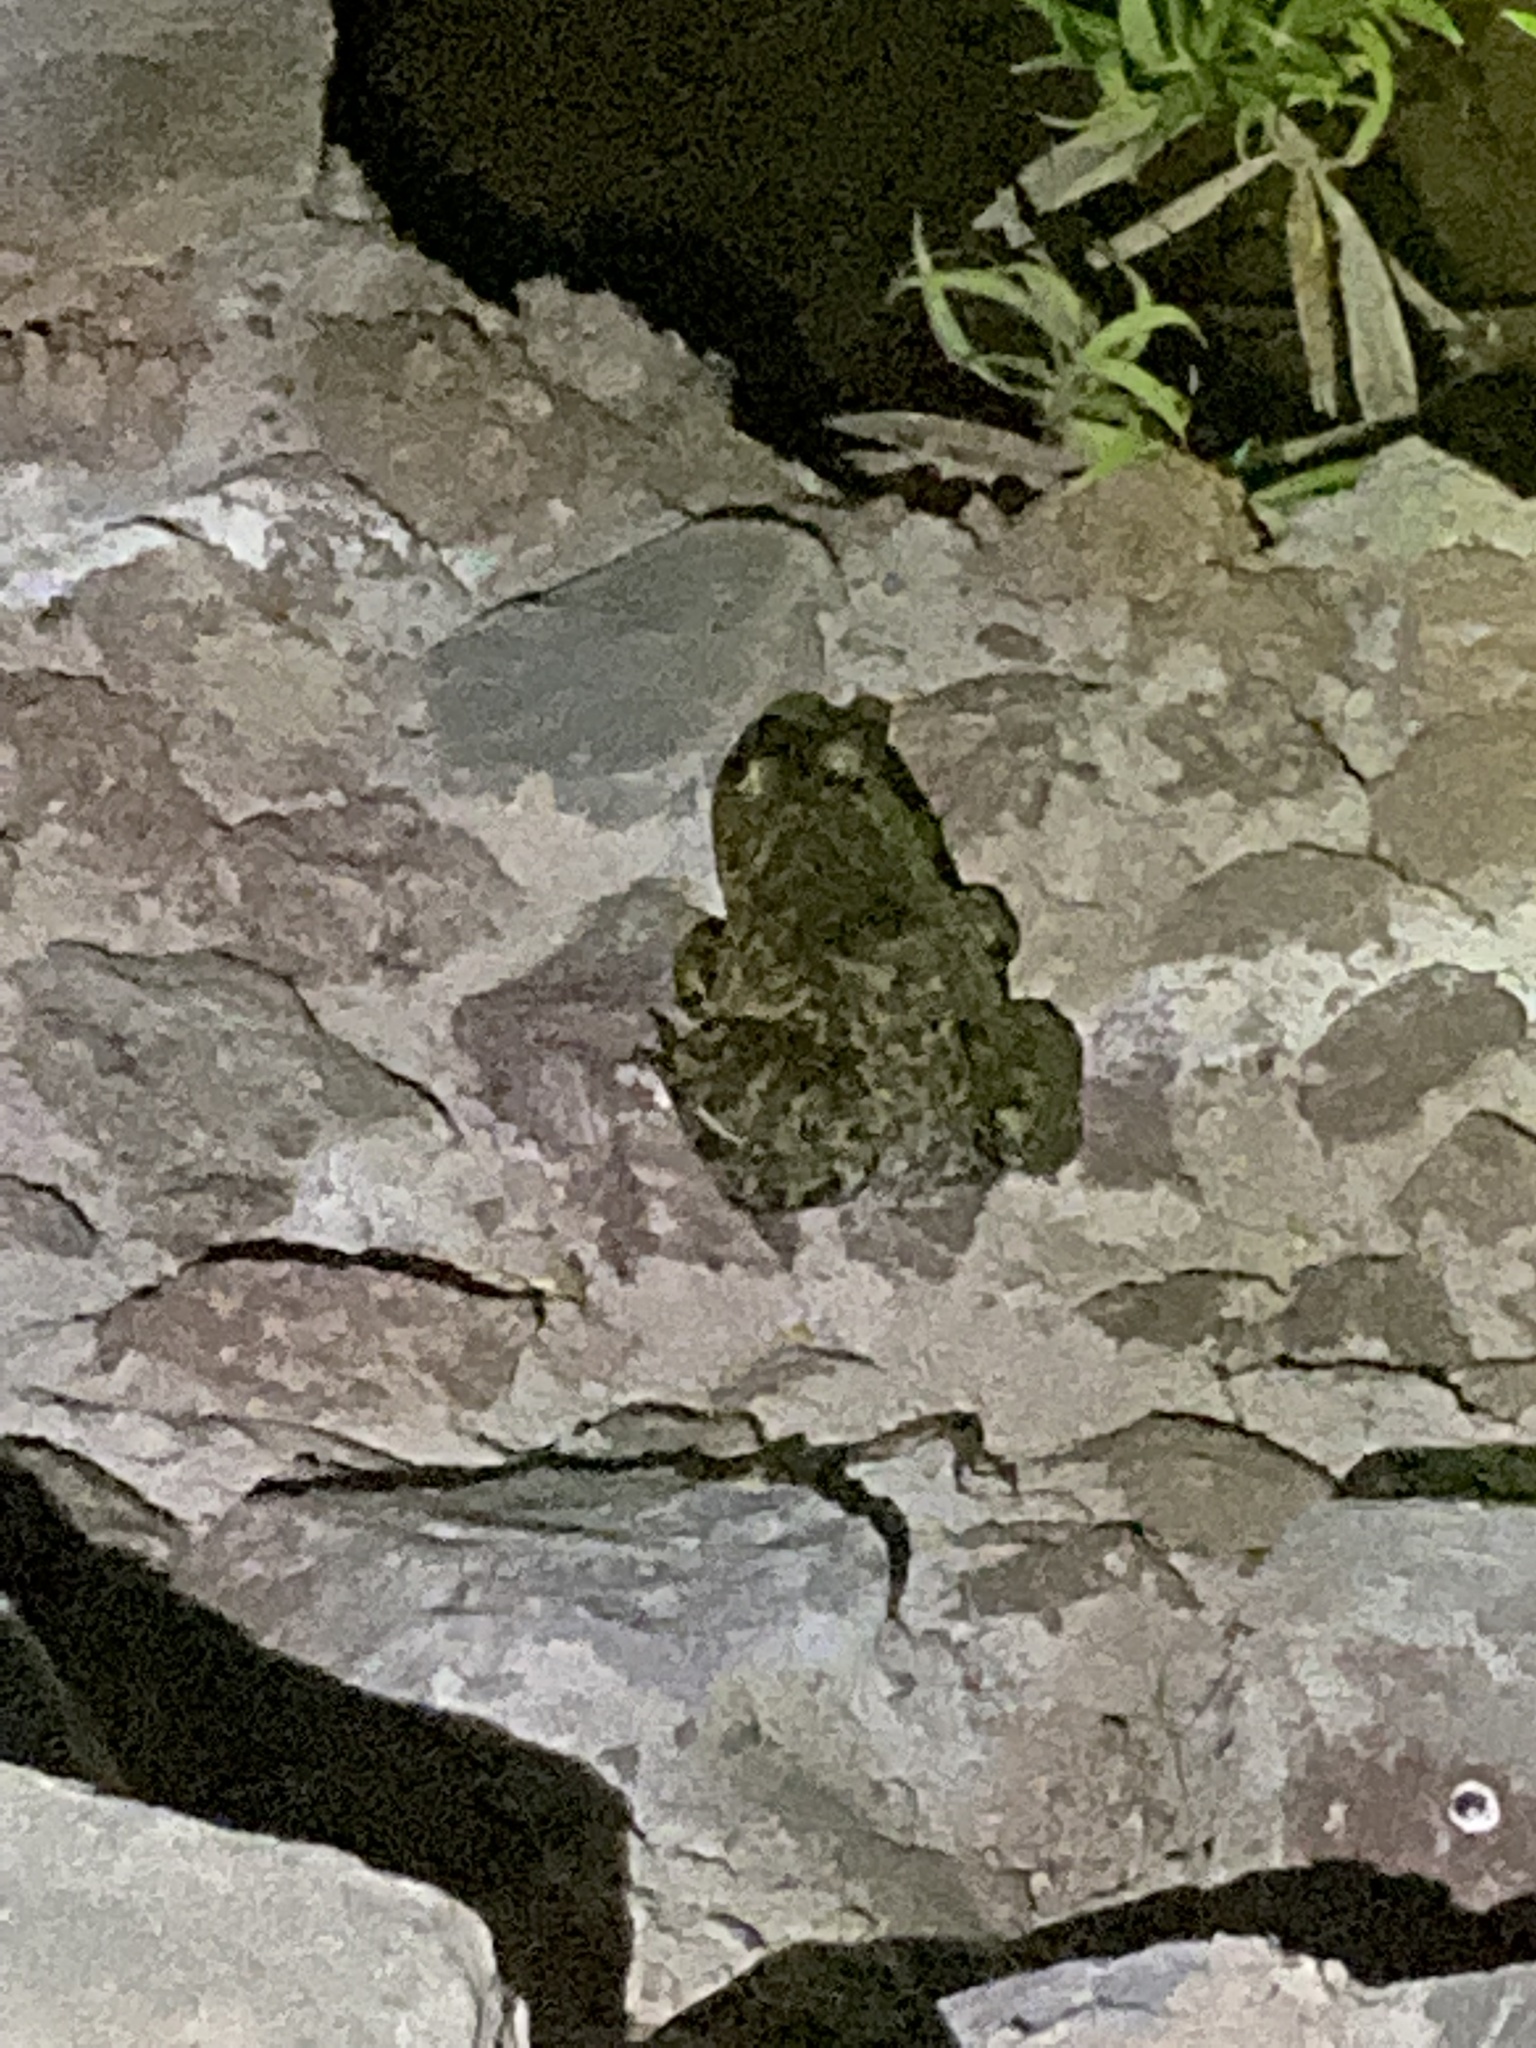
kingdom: Animalia
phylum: Chordata
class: Amphibia
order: Anura
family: Ranidae
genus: Lithobates
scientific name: Lithobates catesbeianus
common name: American bullfrog
